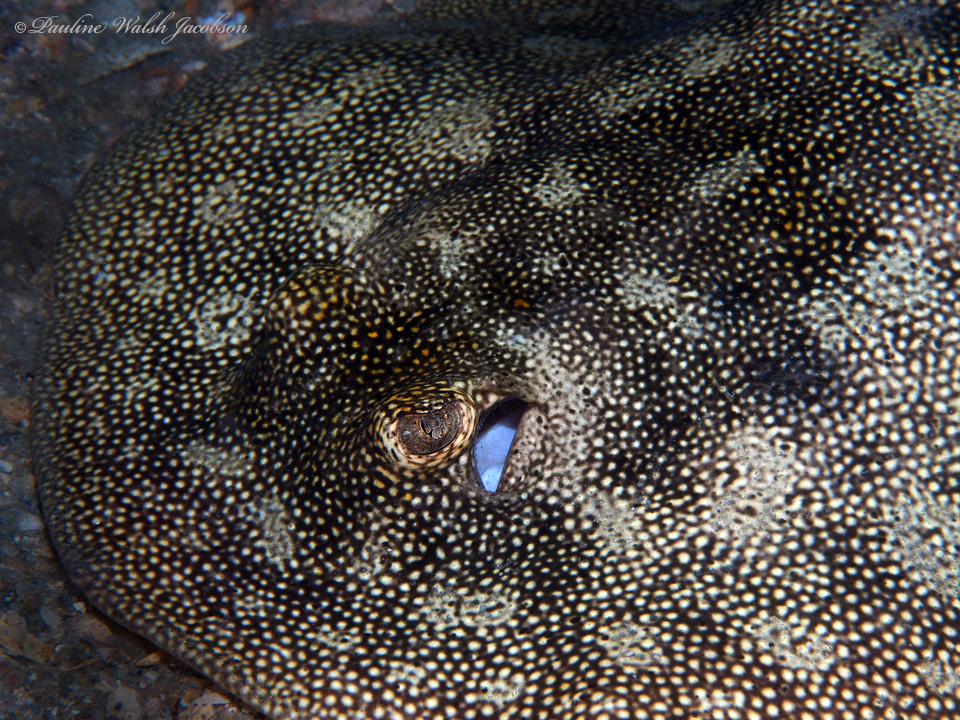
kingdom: Animalia
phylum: Chordata
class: Elasmobranchii
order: Myliobatiformes
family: Urotrygonidae
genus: Urobatis
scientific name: Urobatis jamaicensis
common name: Yellow stingray
